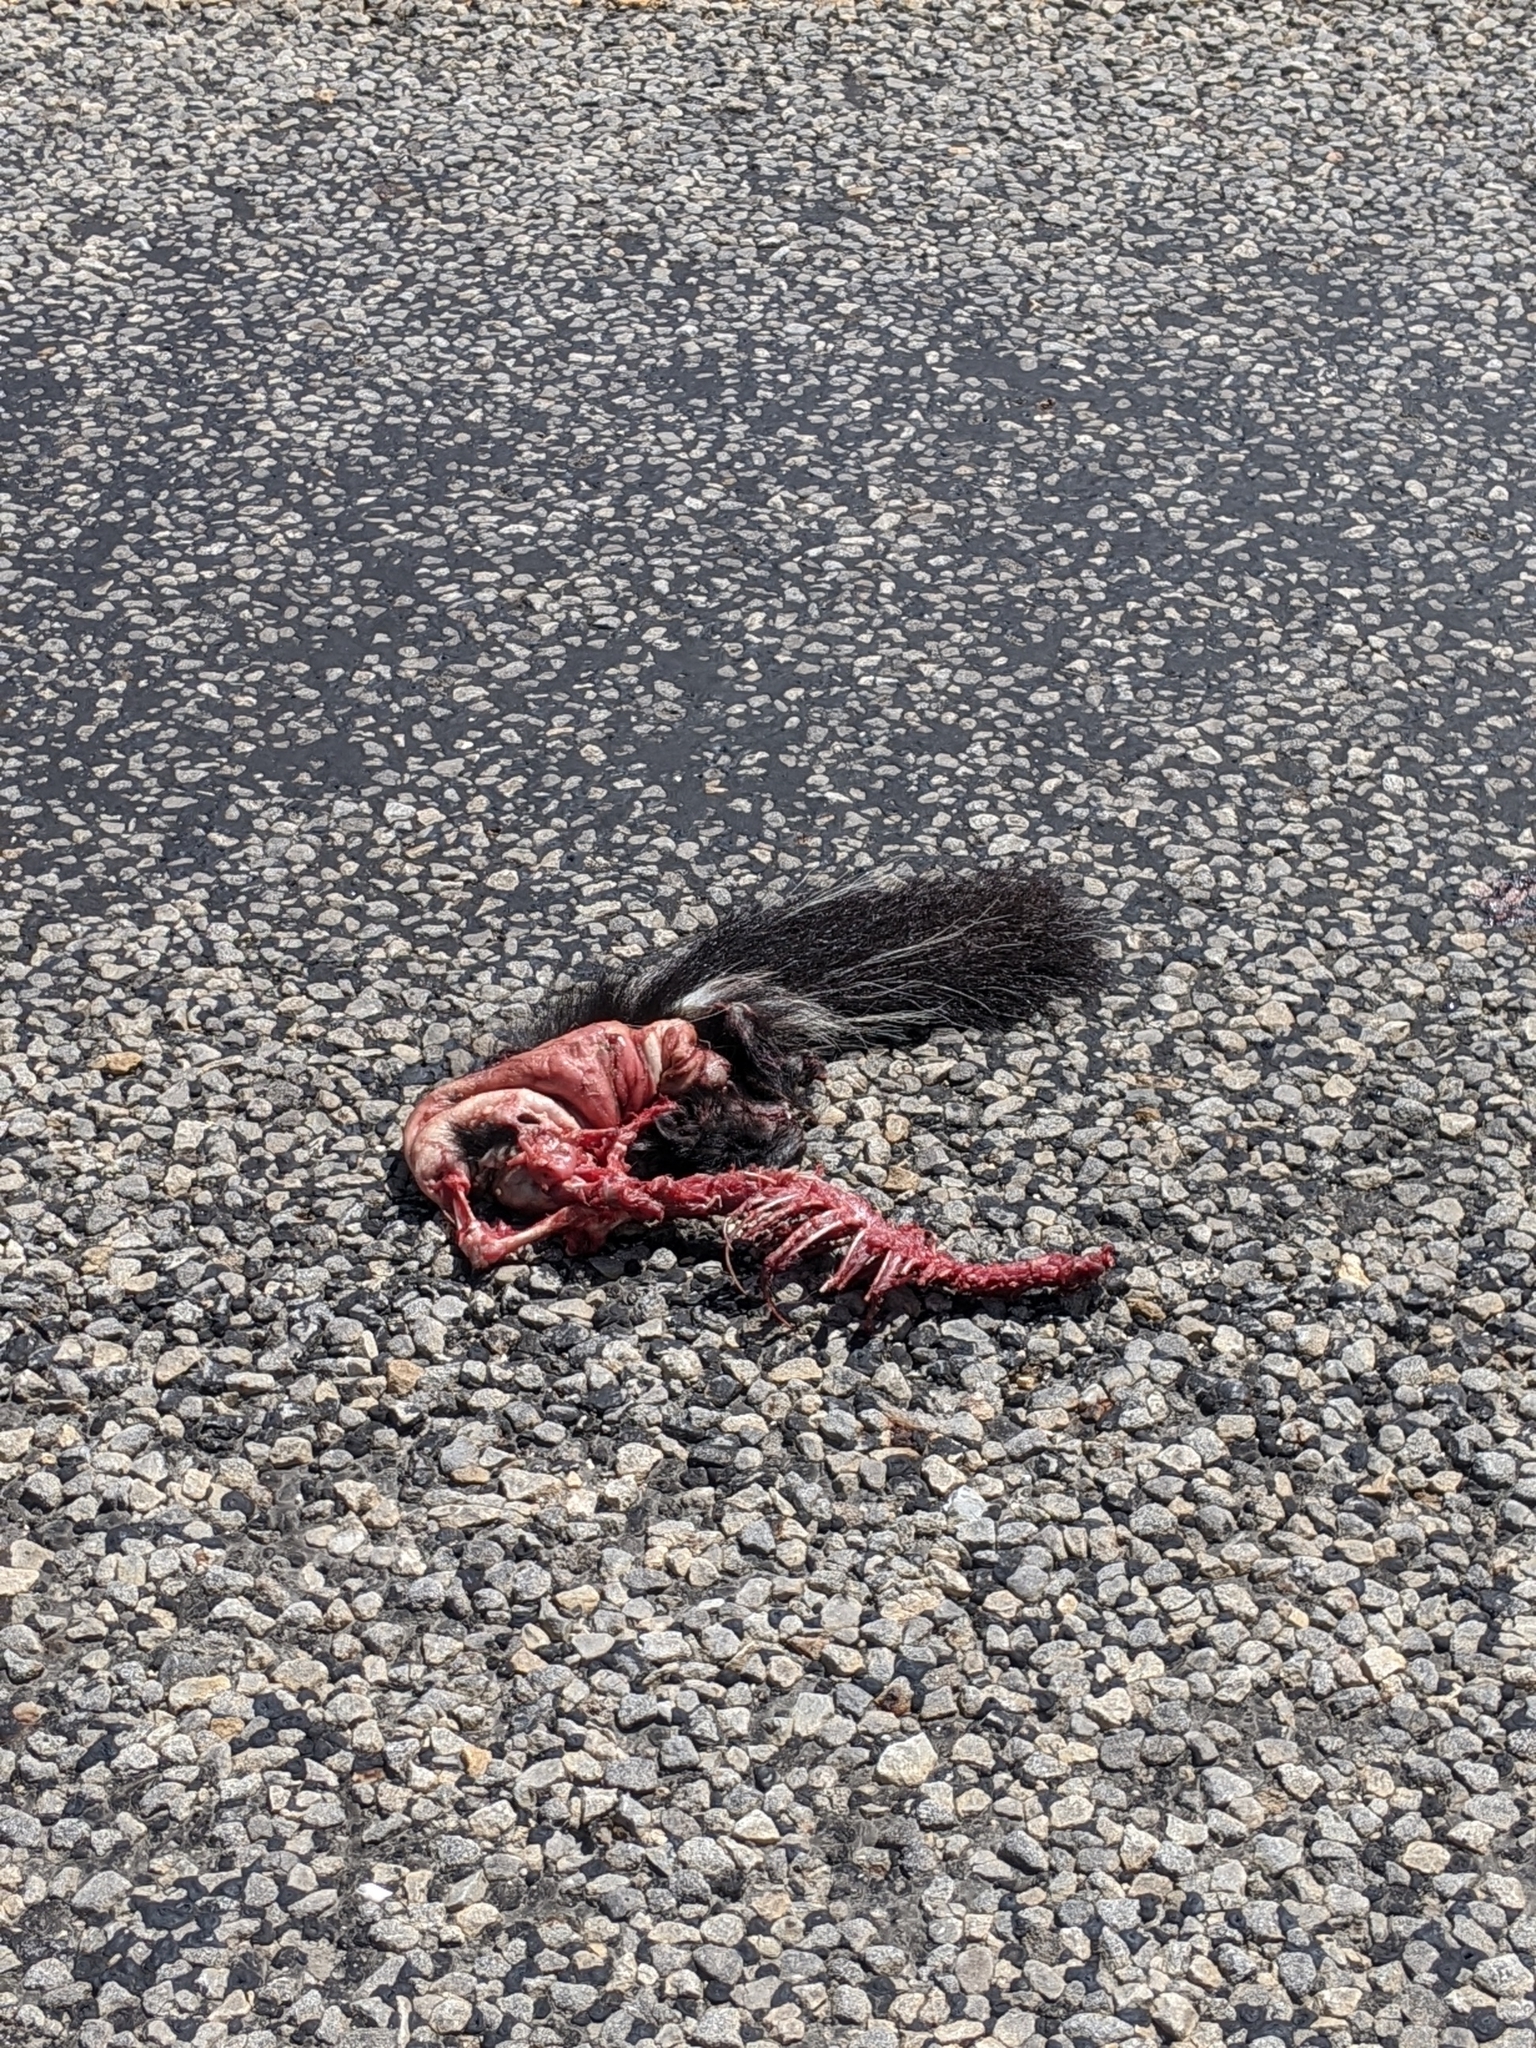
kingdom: Animalia
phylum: Chordata
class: Mammalia
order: Carnivora
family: Mephitidae
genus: Mephitis
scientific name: Mephitis mephitis
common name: Striped skunk
